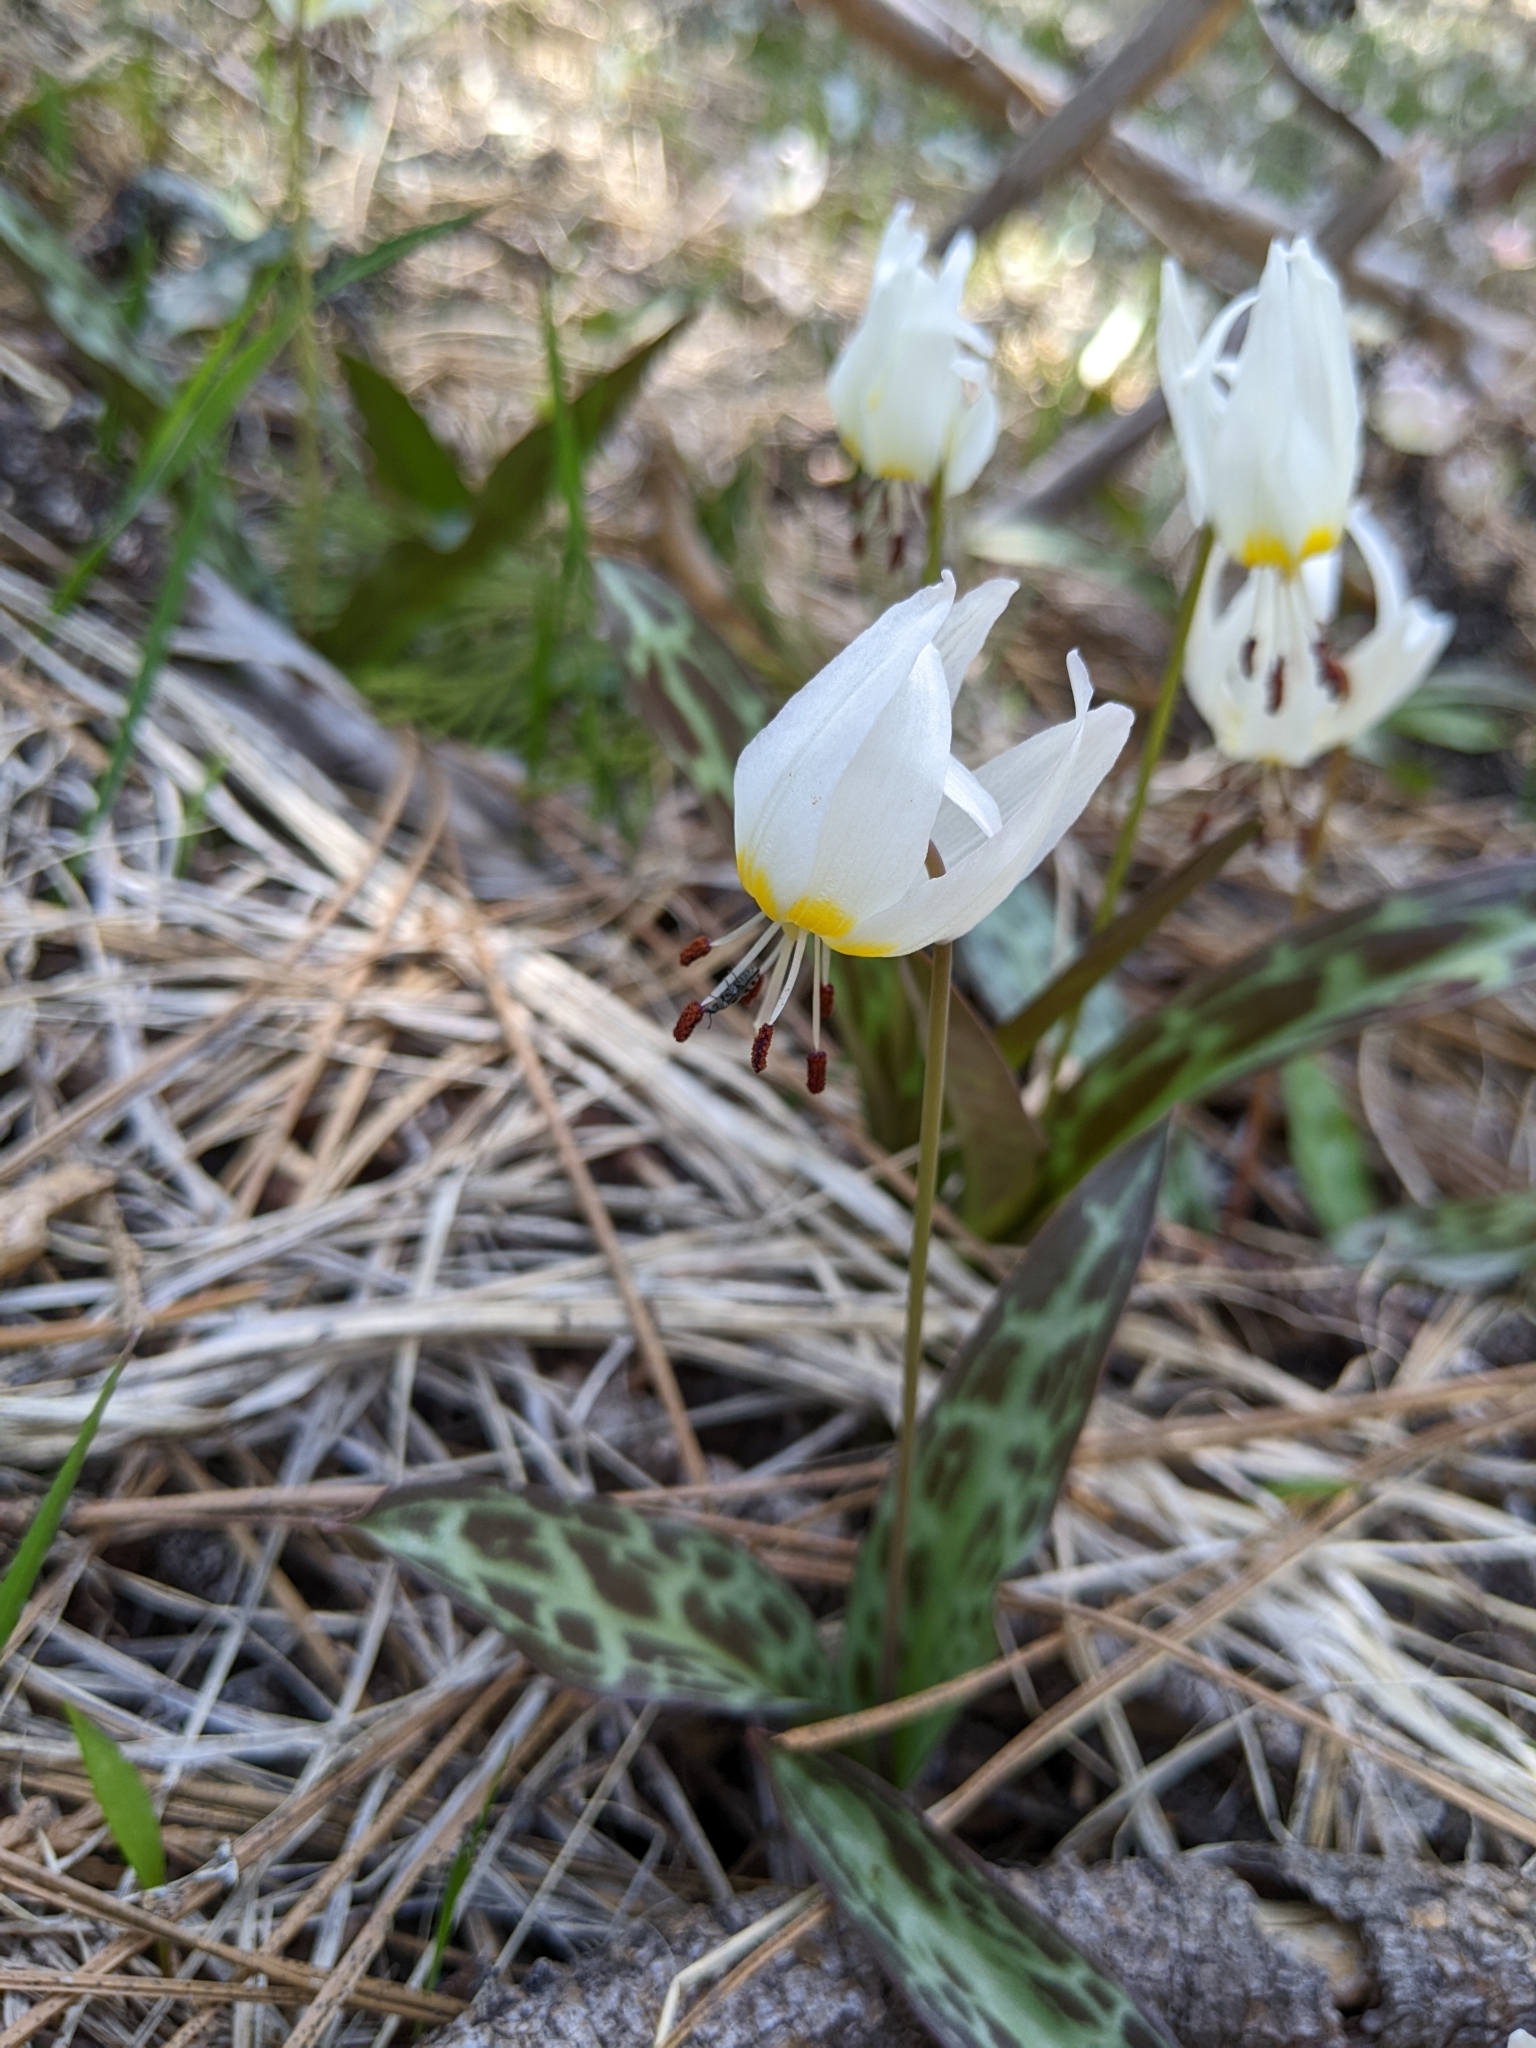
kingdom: Plantae
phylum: Tracheophyta
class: Liliopsida
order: Liliales
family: Liliaceae
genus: Erythronium
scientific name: Erythronium citrinum
